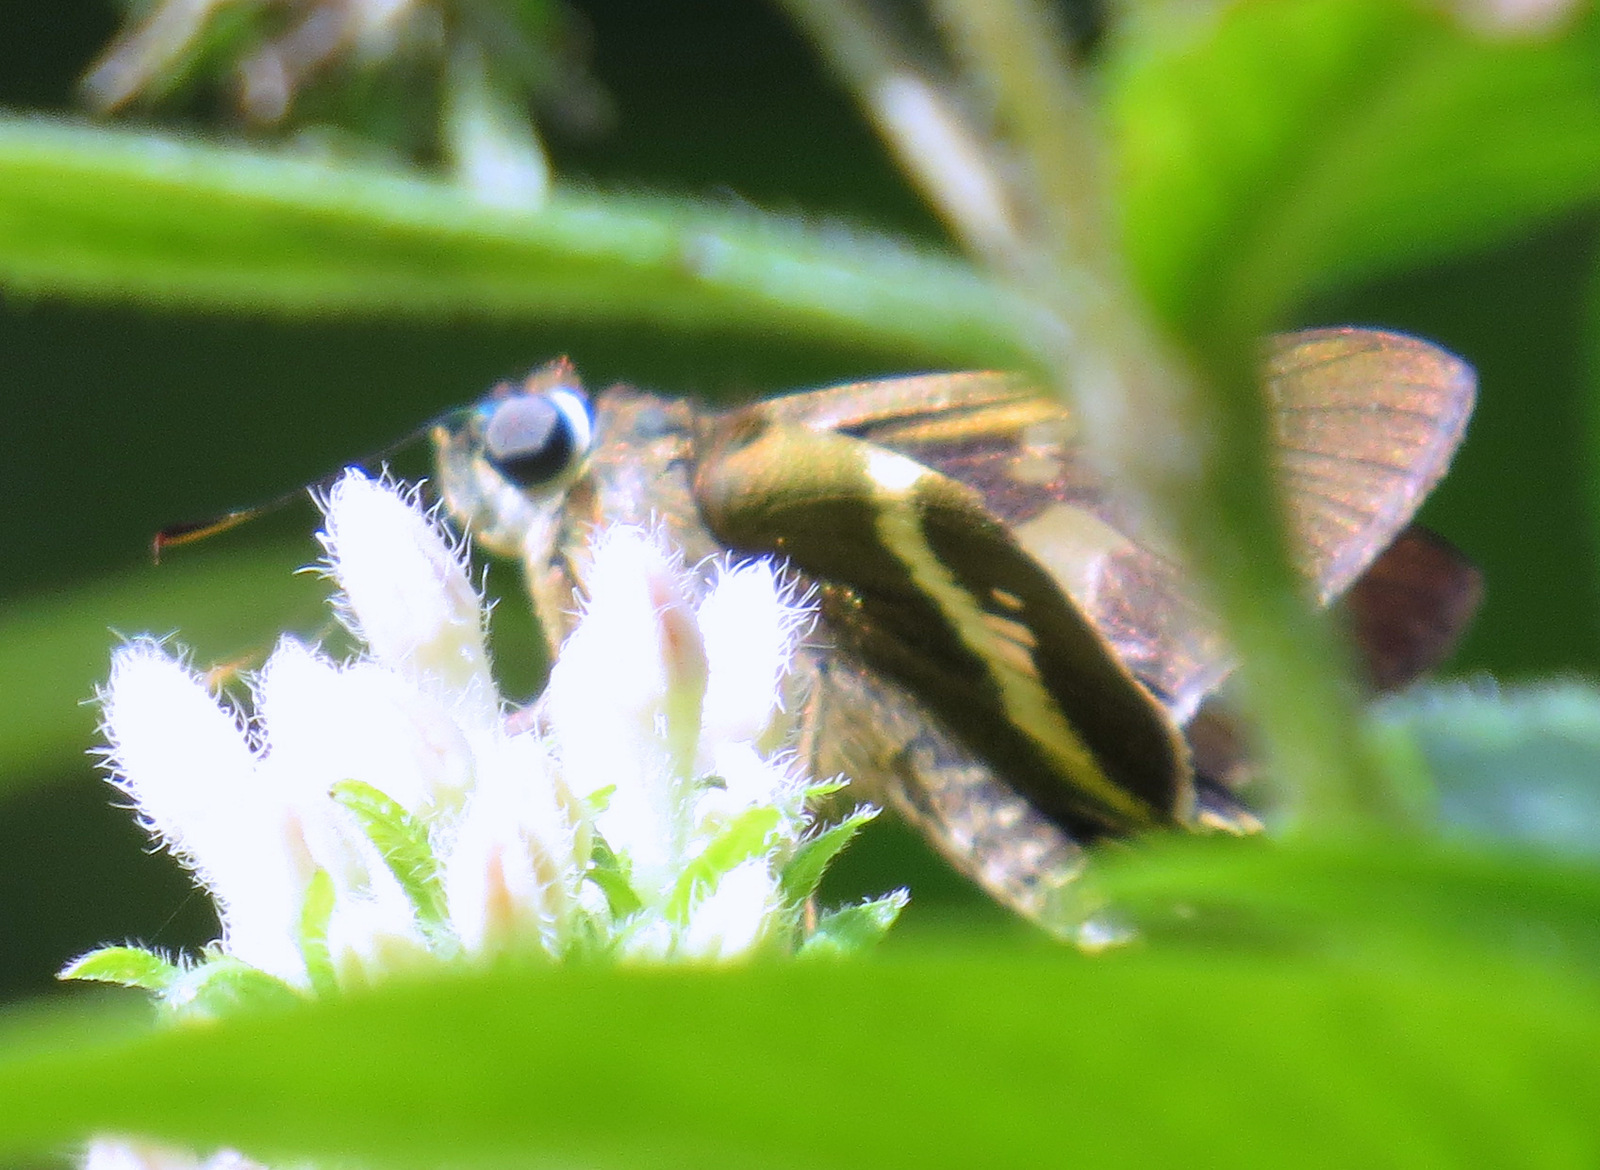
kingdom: Animalia
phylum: Arthropoda
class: Insecta
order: Lepidoptera
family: Hesperiidae
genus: Niconiades
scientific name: Niconiades nikko
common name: Nikko skipper
